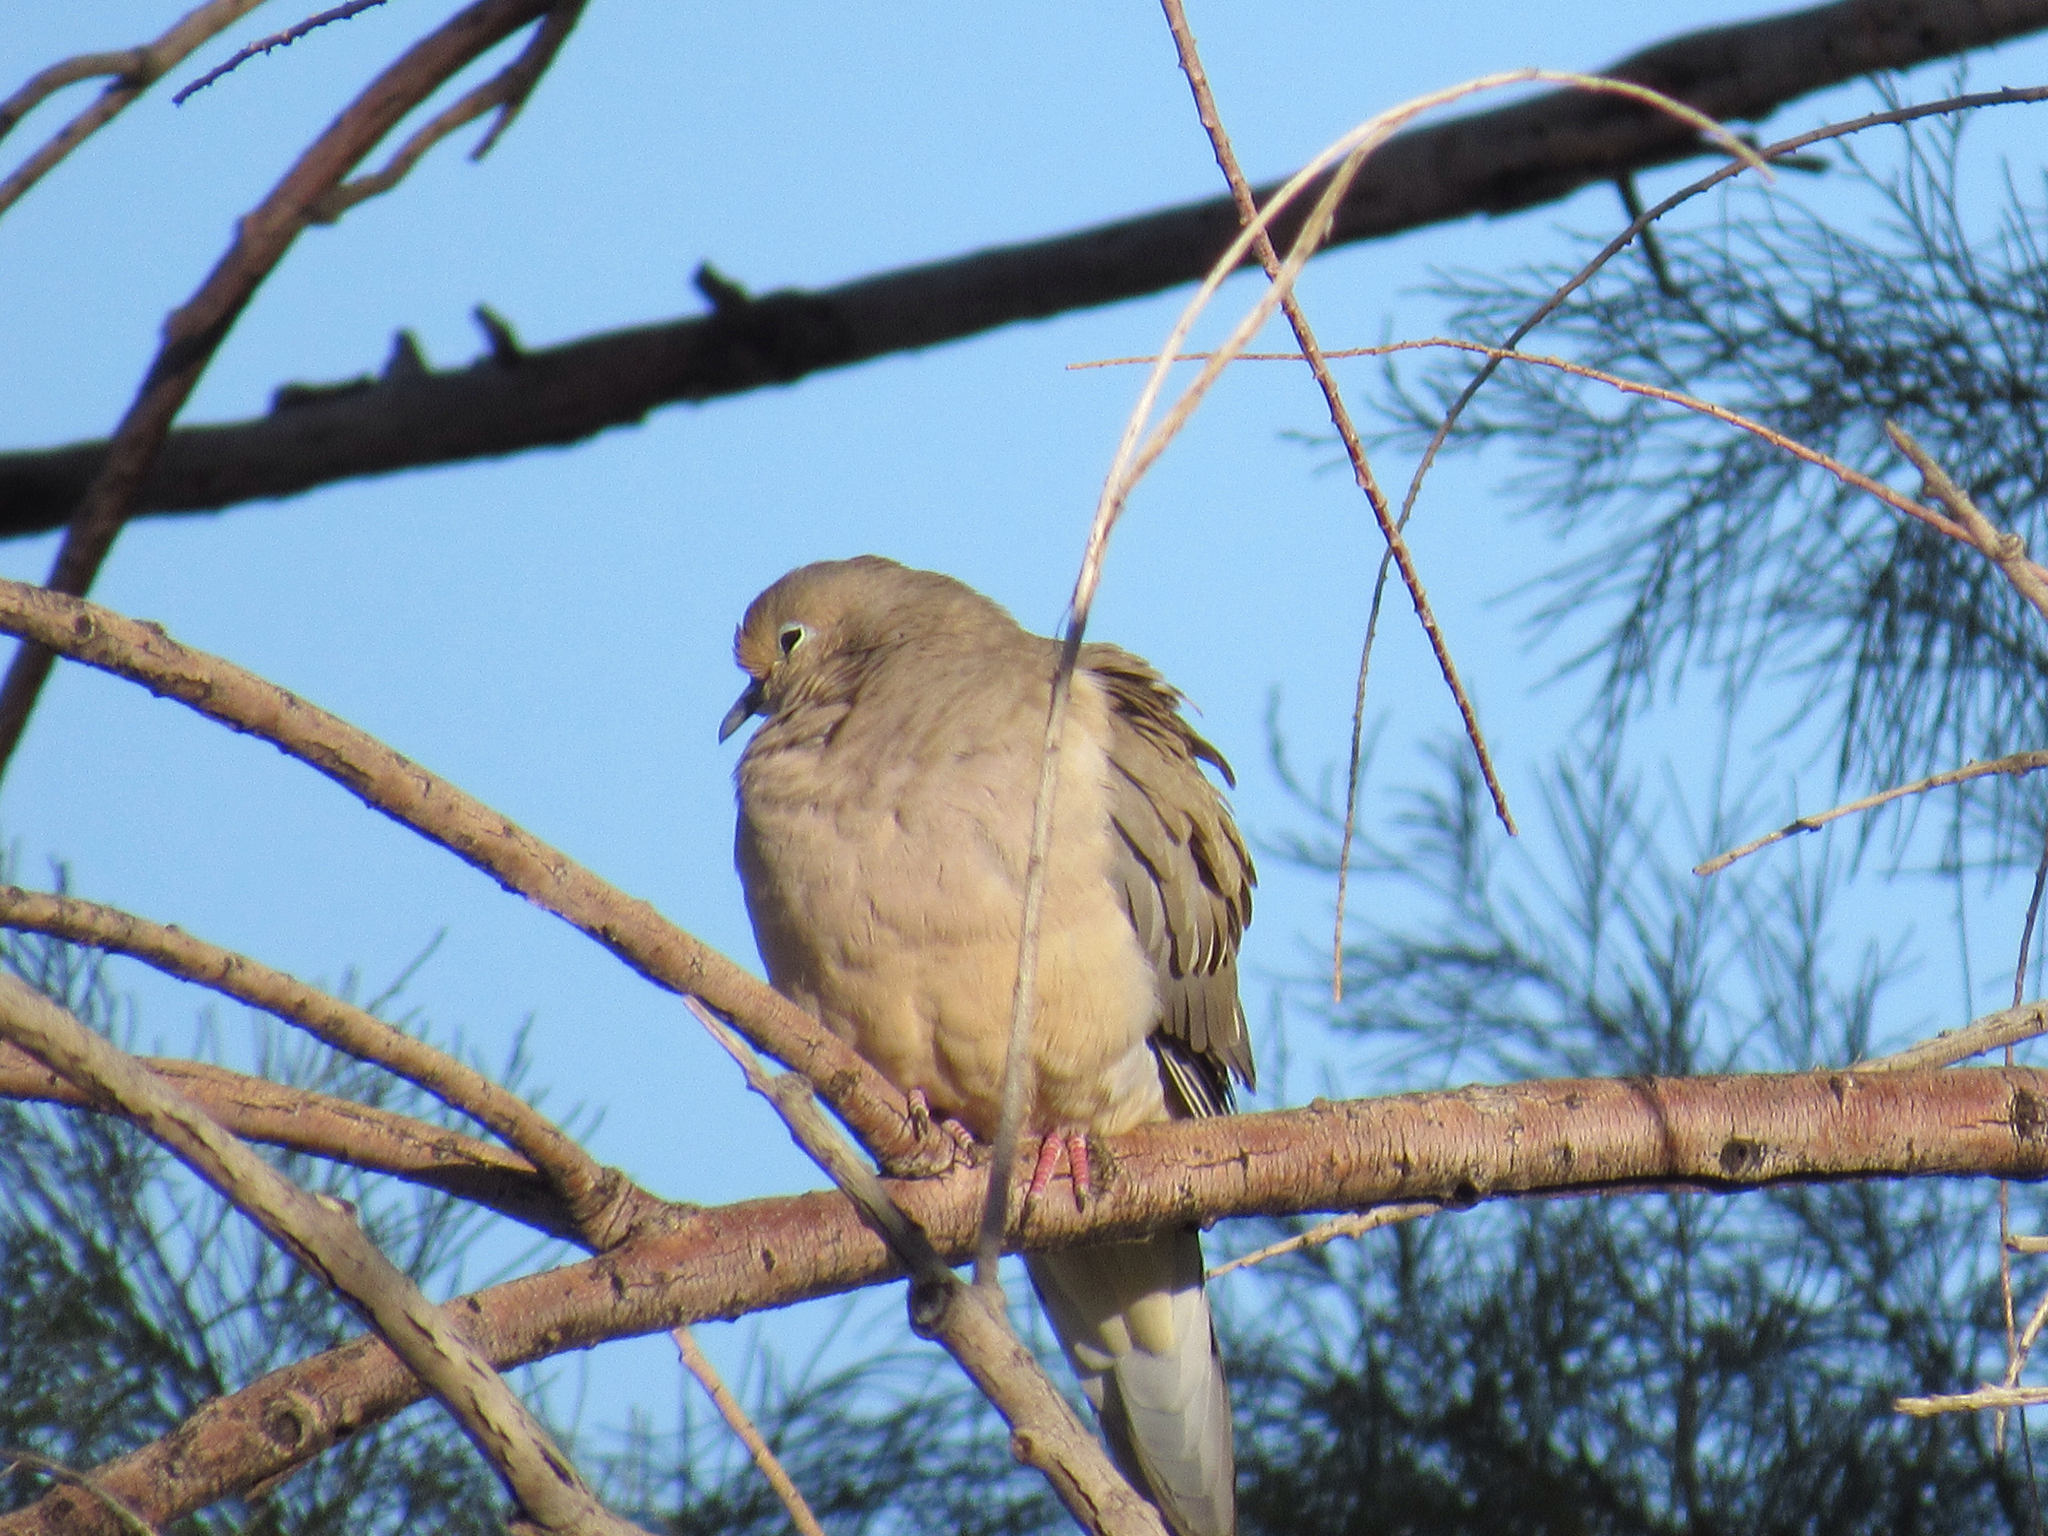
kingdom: Animalia
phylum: Chordata
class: Aves
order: Columbiformes
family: Columbidae
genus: Zenaida
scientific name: Zenaida macroura
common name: Mourning dove
